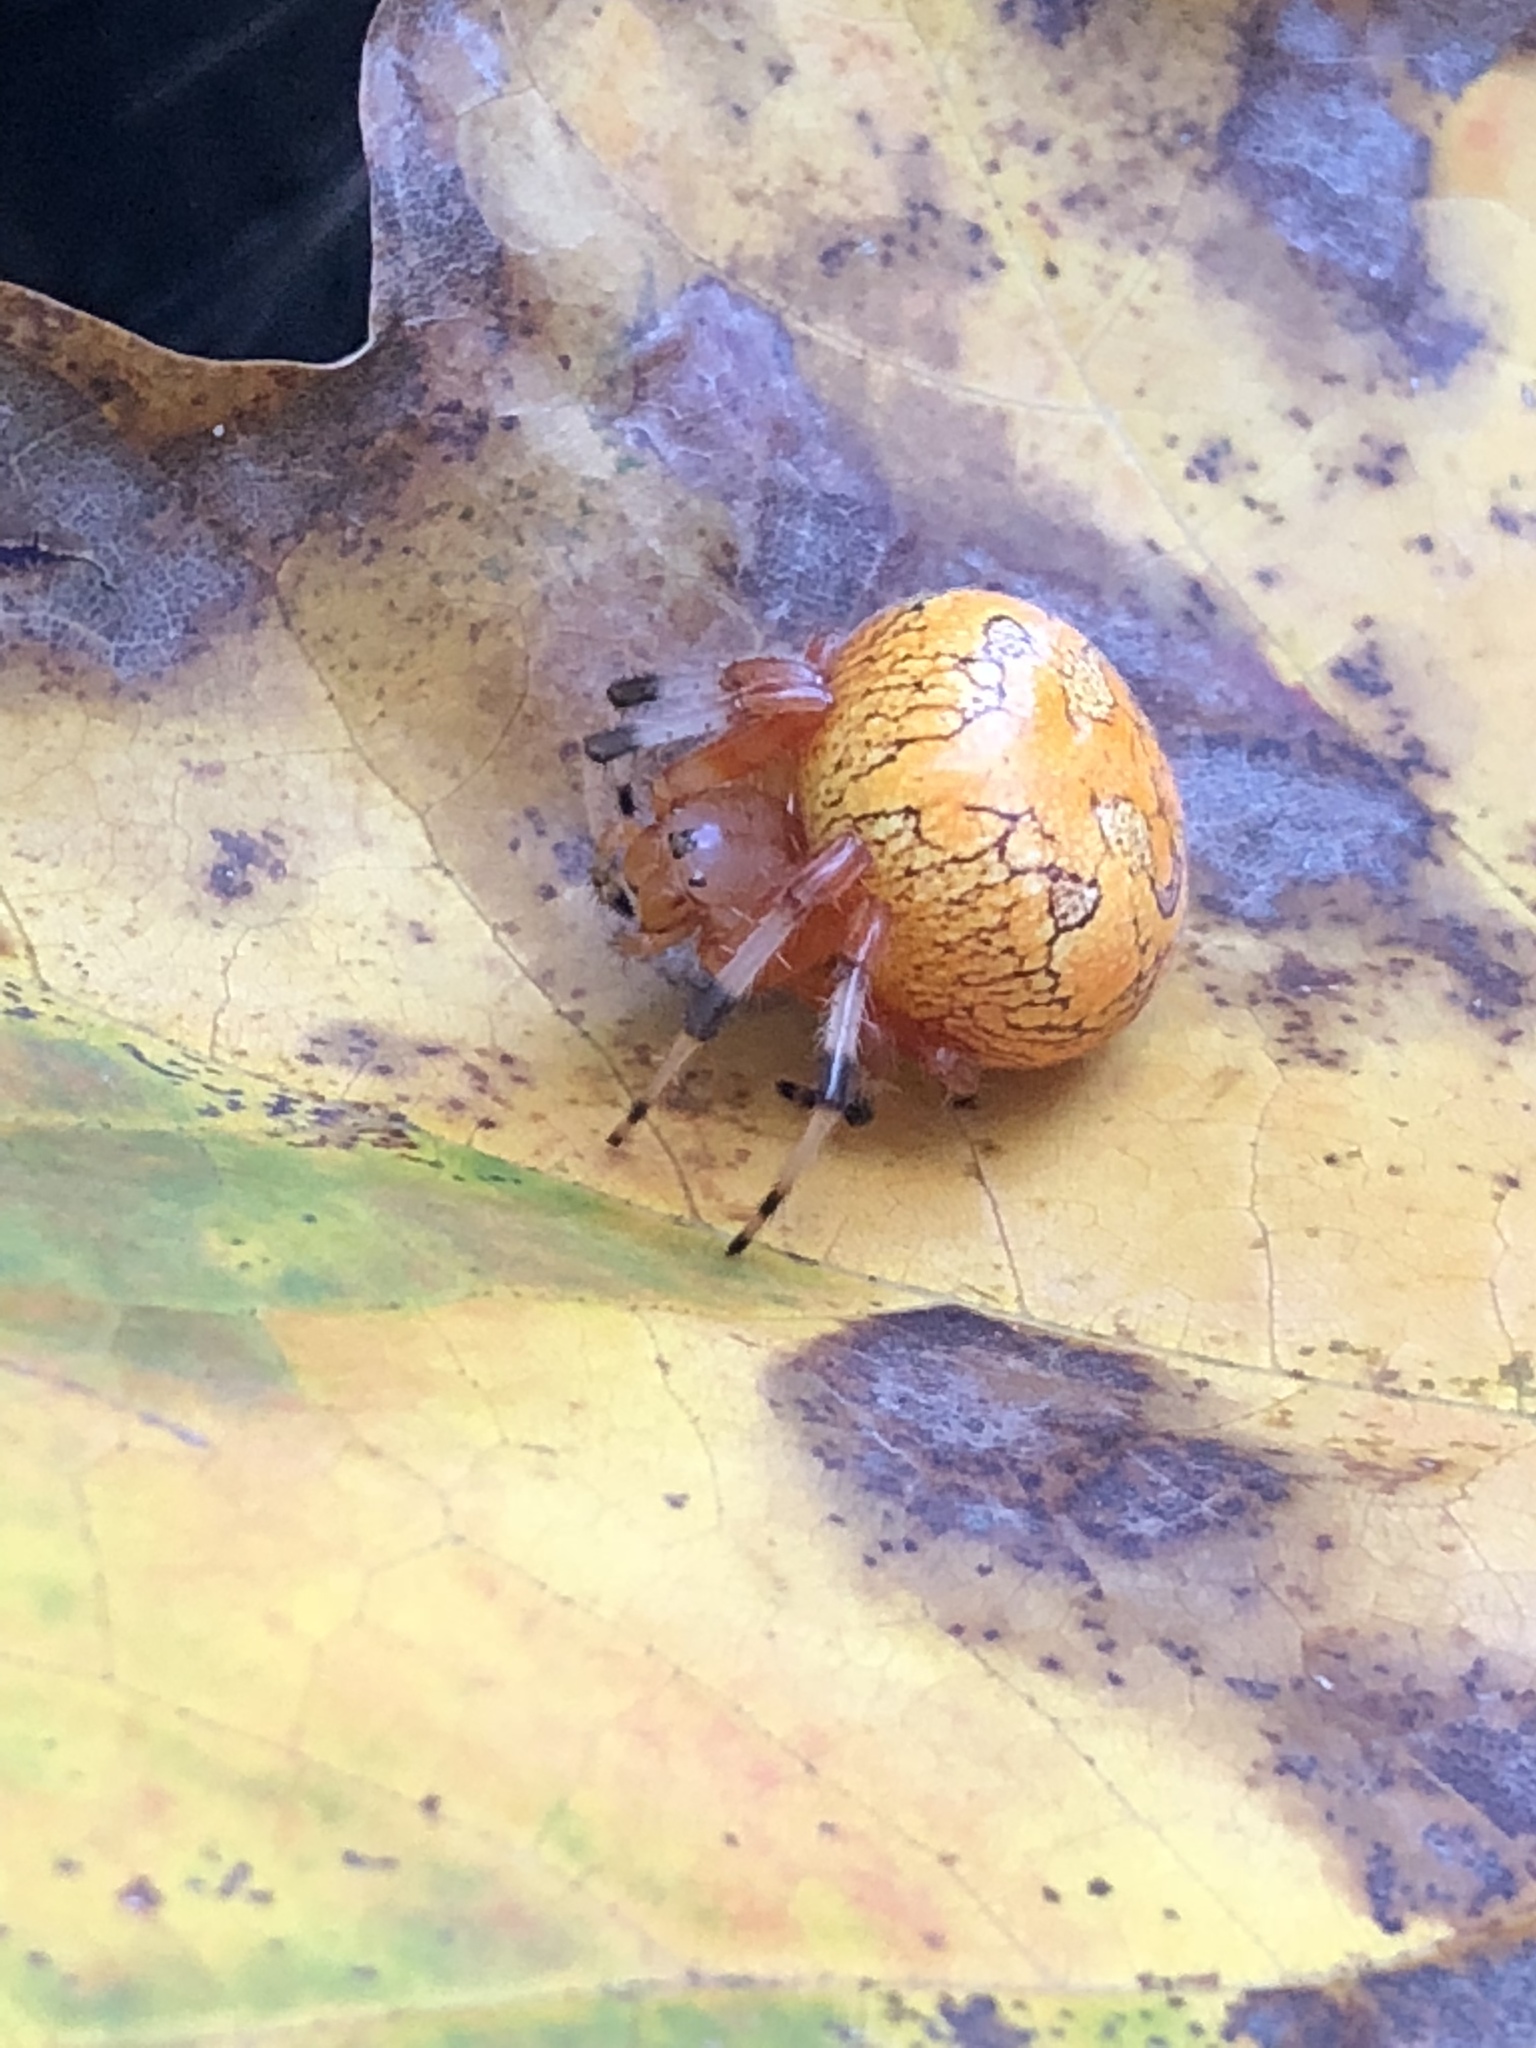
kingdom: Animalia
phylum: Arthropoda
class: Arachnida
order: Araneae
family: Araneidae
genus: Araneus
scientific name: Araneus marmoreus
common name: Marbled orbweaver
